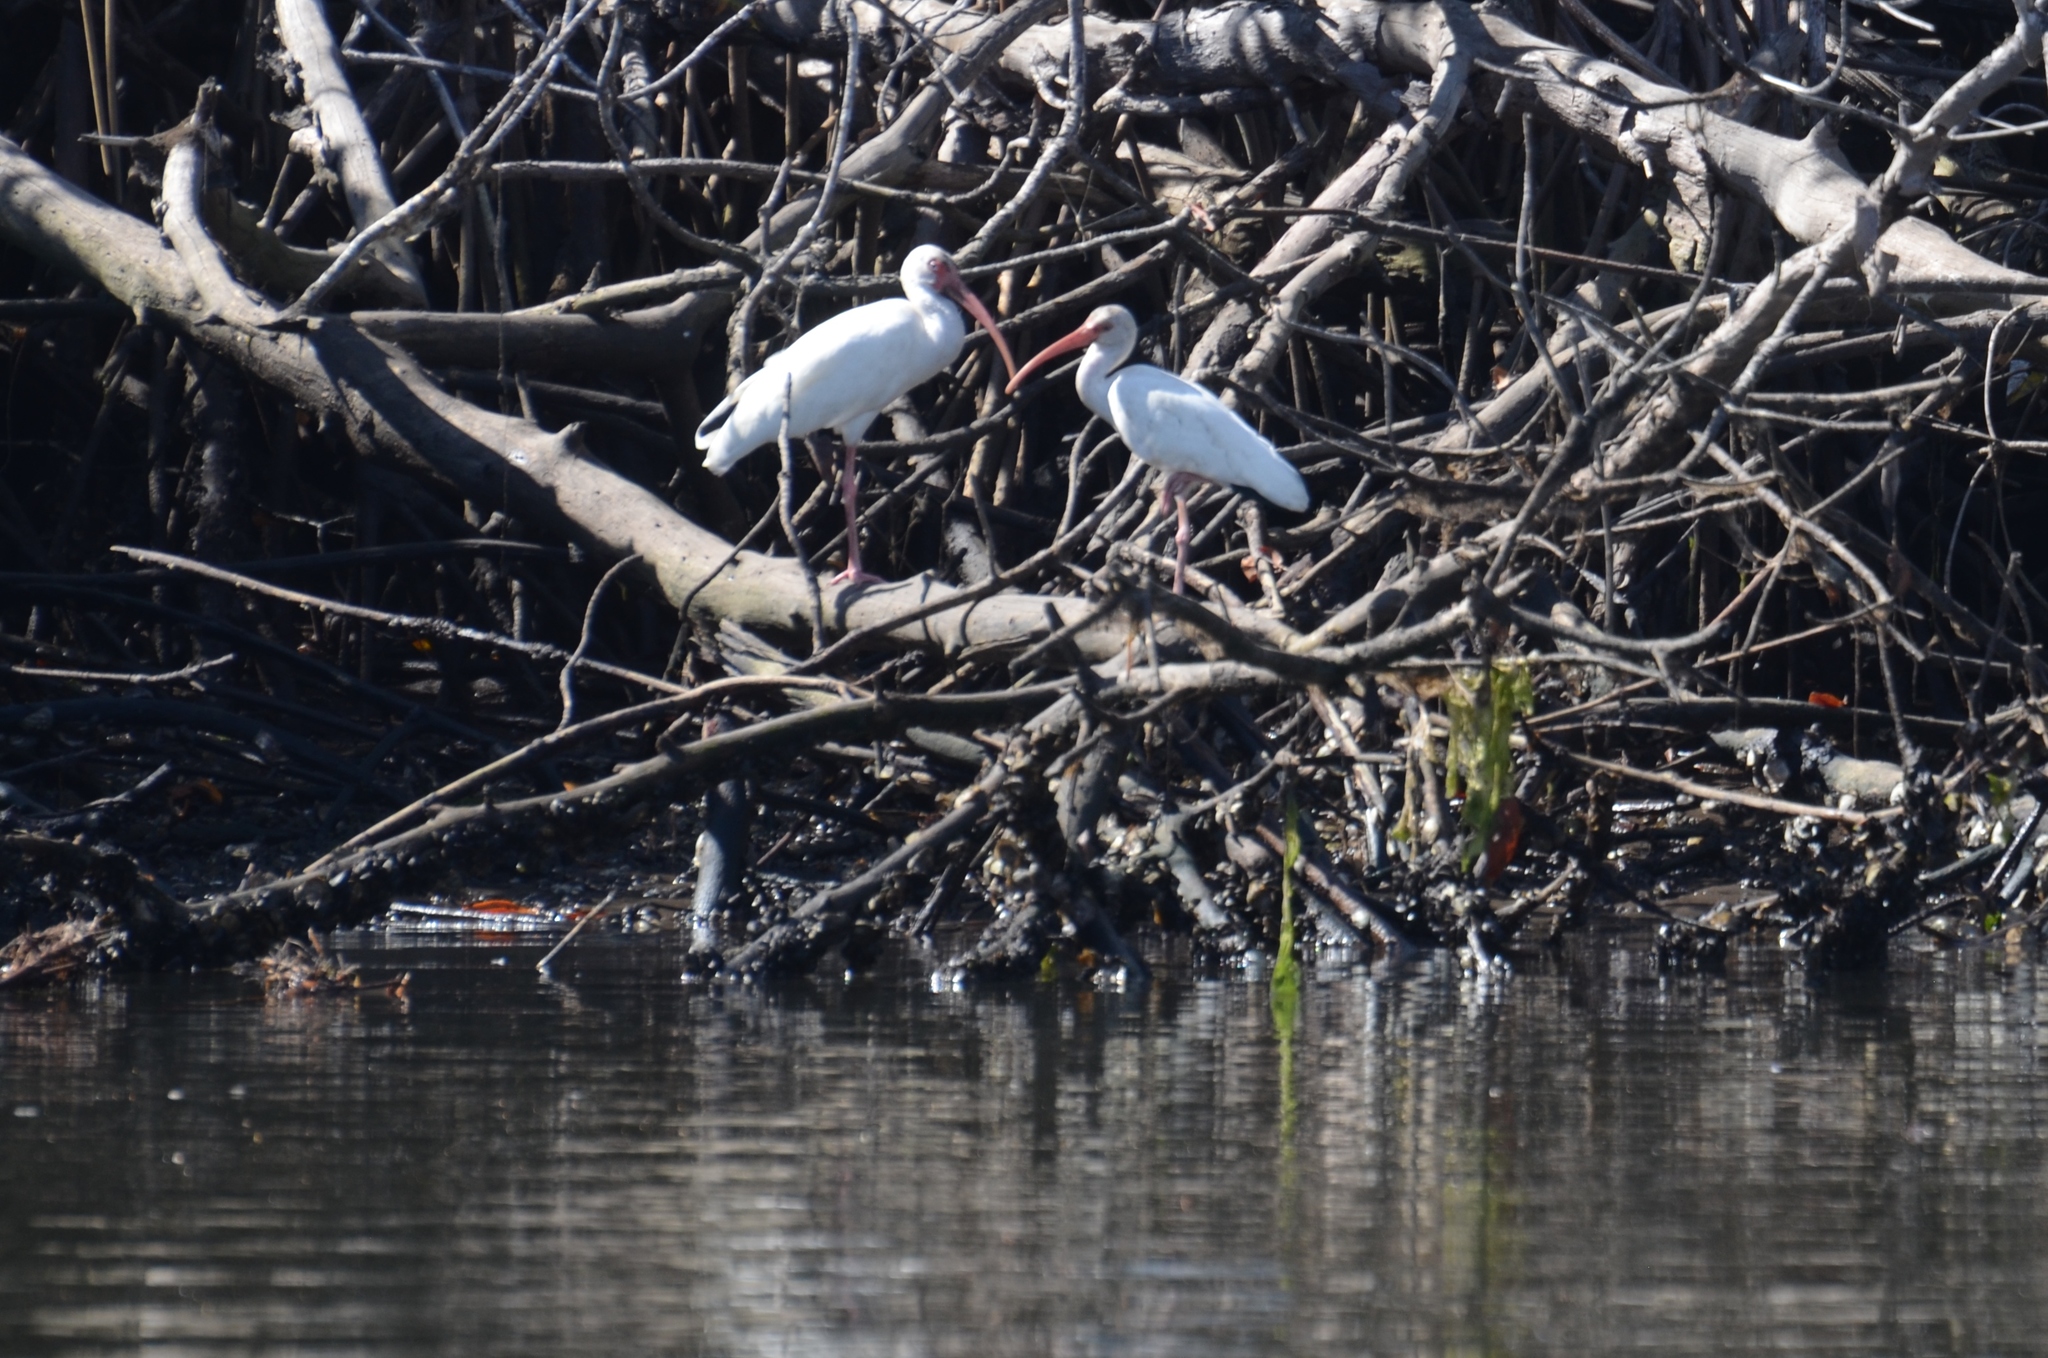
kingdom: Animalia
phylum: Chordata
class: Aves
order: Pelecaniformes
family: Threskiornithidae
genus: Eudocimus
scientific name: Eudocimus albus
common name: White ibis
